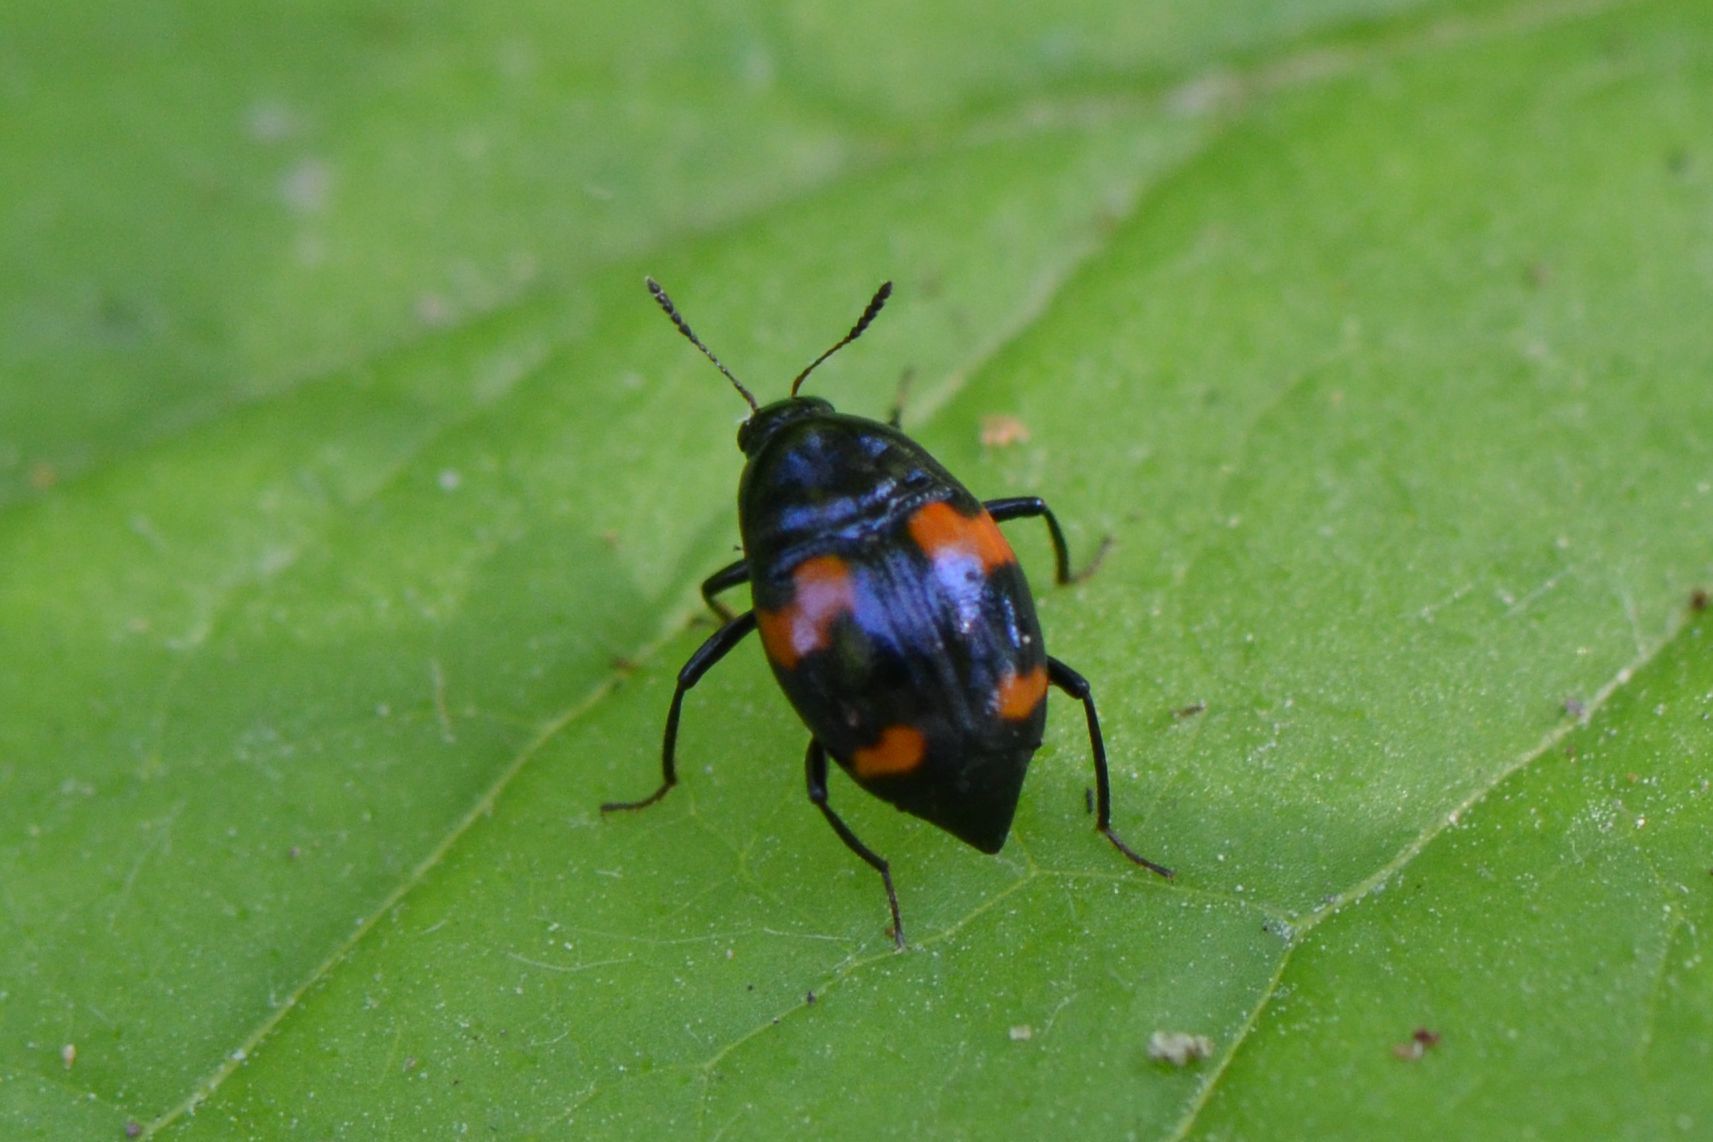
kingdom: Animalia
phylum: Arthropoda
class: Insecta
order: Coleoptera
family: Staphylinidae
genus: Scaphidium
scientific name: Scaphidium quadrimaculatum
